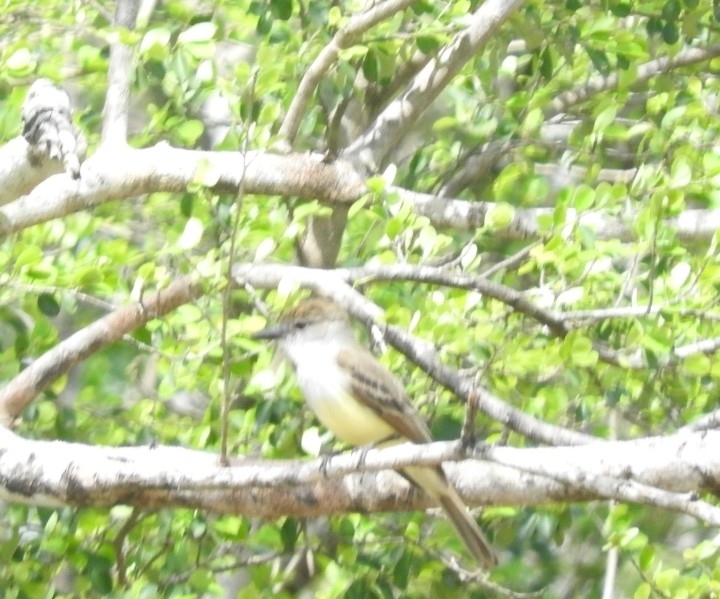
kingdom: Animalia
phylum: Chordata
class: Aves
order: Passeriformes
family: Tyrannidae
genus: Myiarchus
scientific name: Myiarchus tyrannulus
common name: Brown-crested flycatcher
